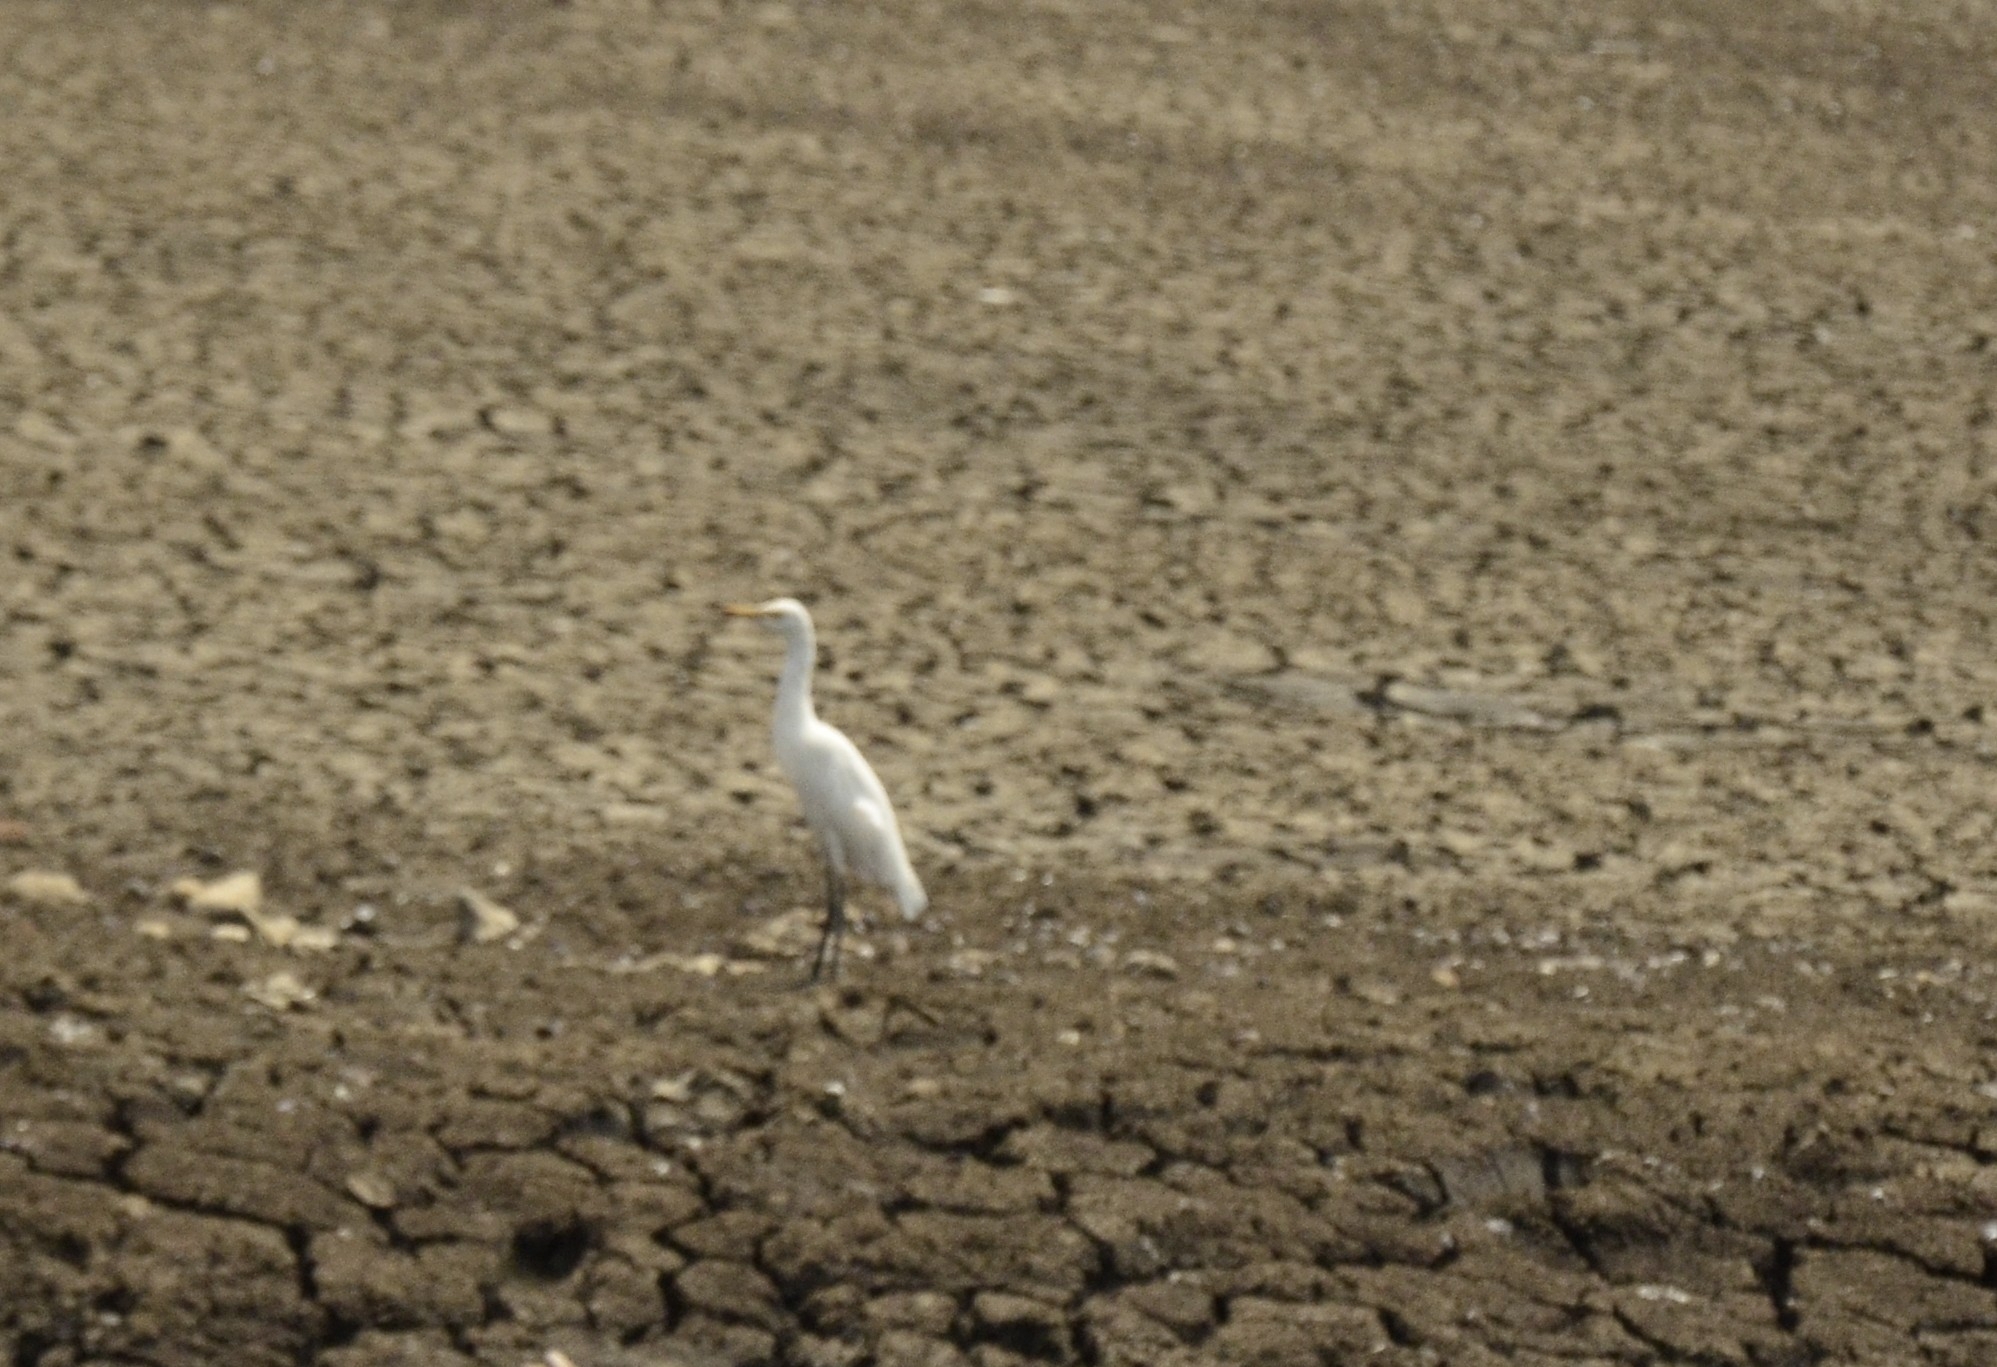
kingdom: Animalia
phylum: Chordata
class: Aves
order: Pelecaniformes
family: Ardeidae
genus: Bubulcus
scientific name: Bubulcus coromandus
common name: Eastern cattle egret
